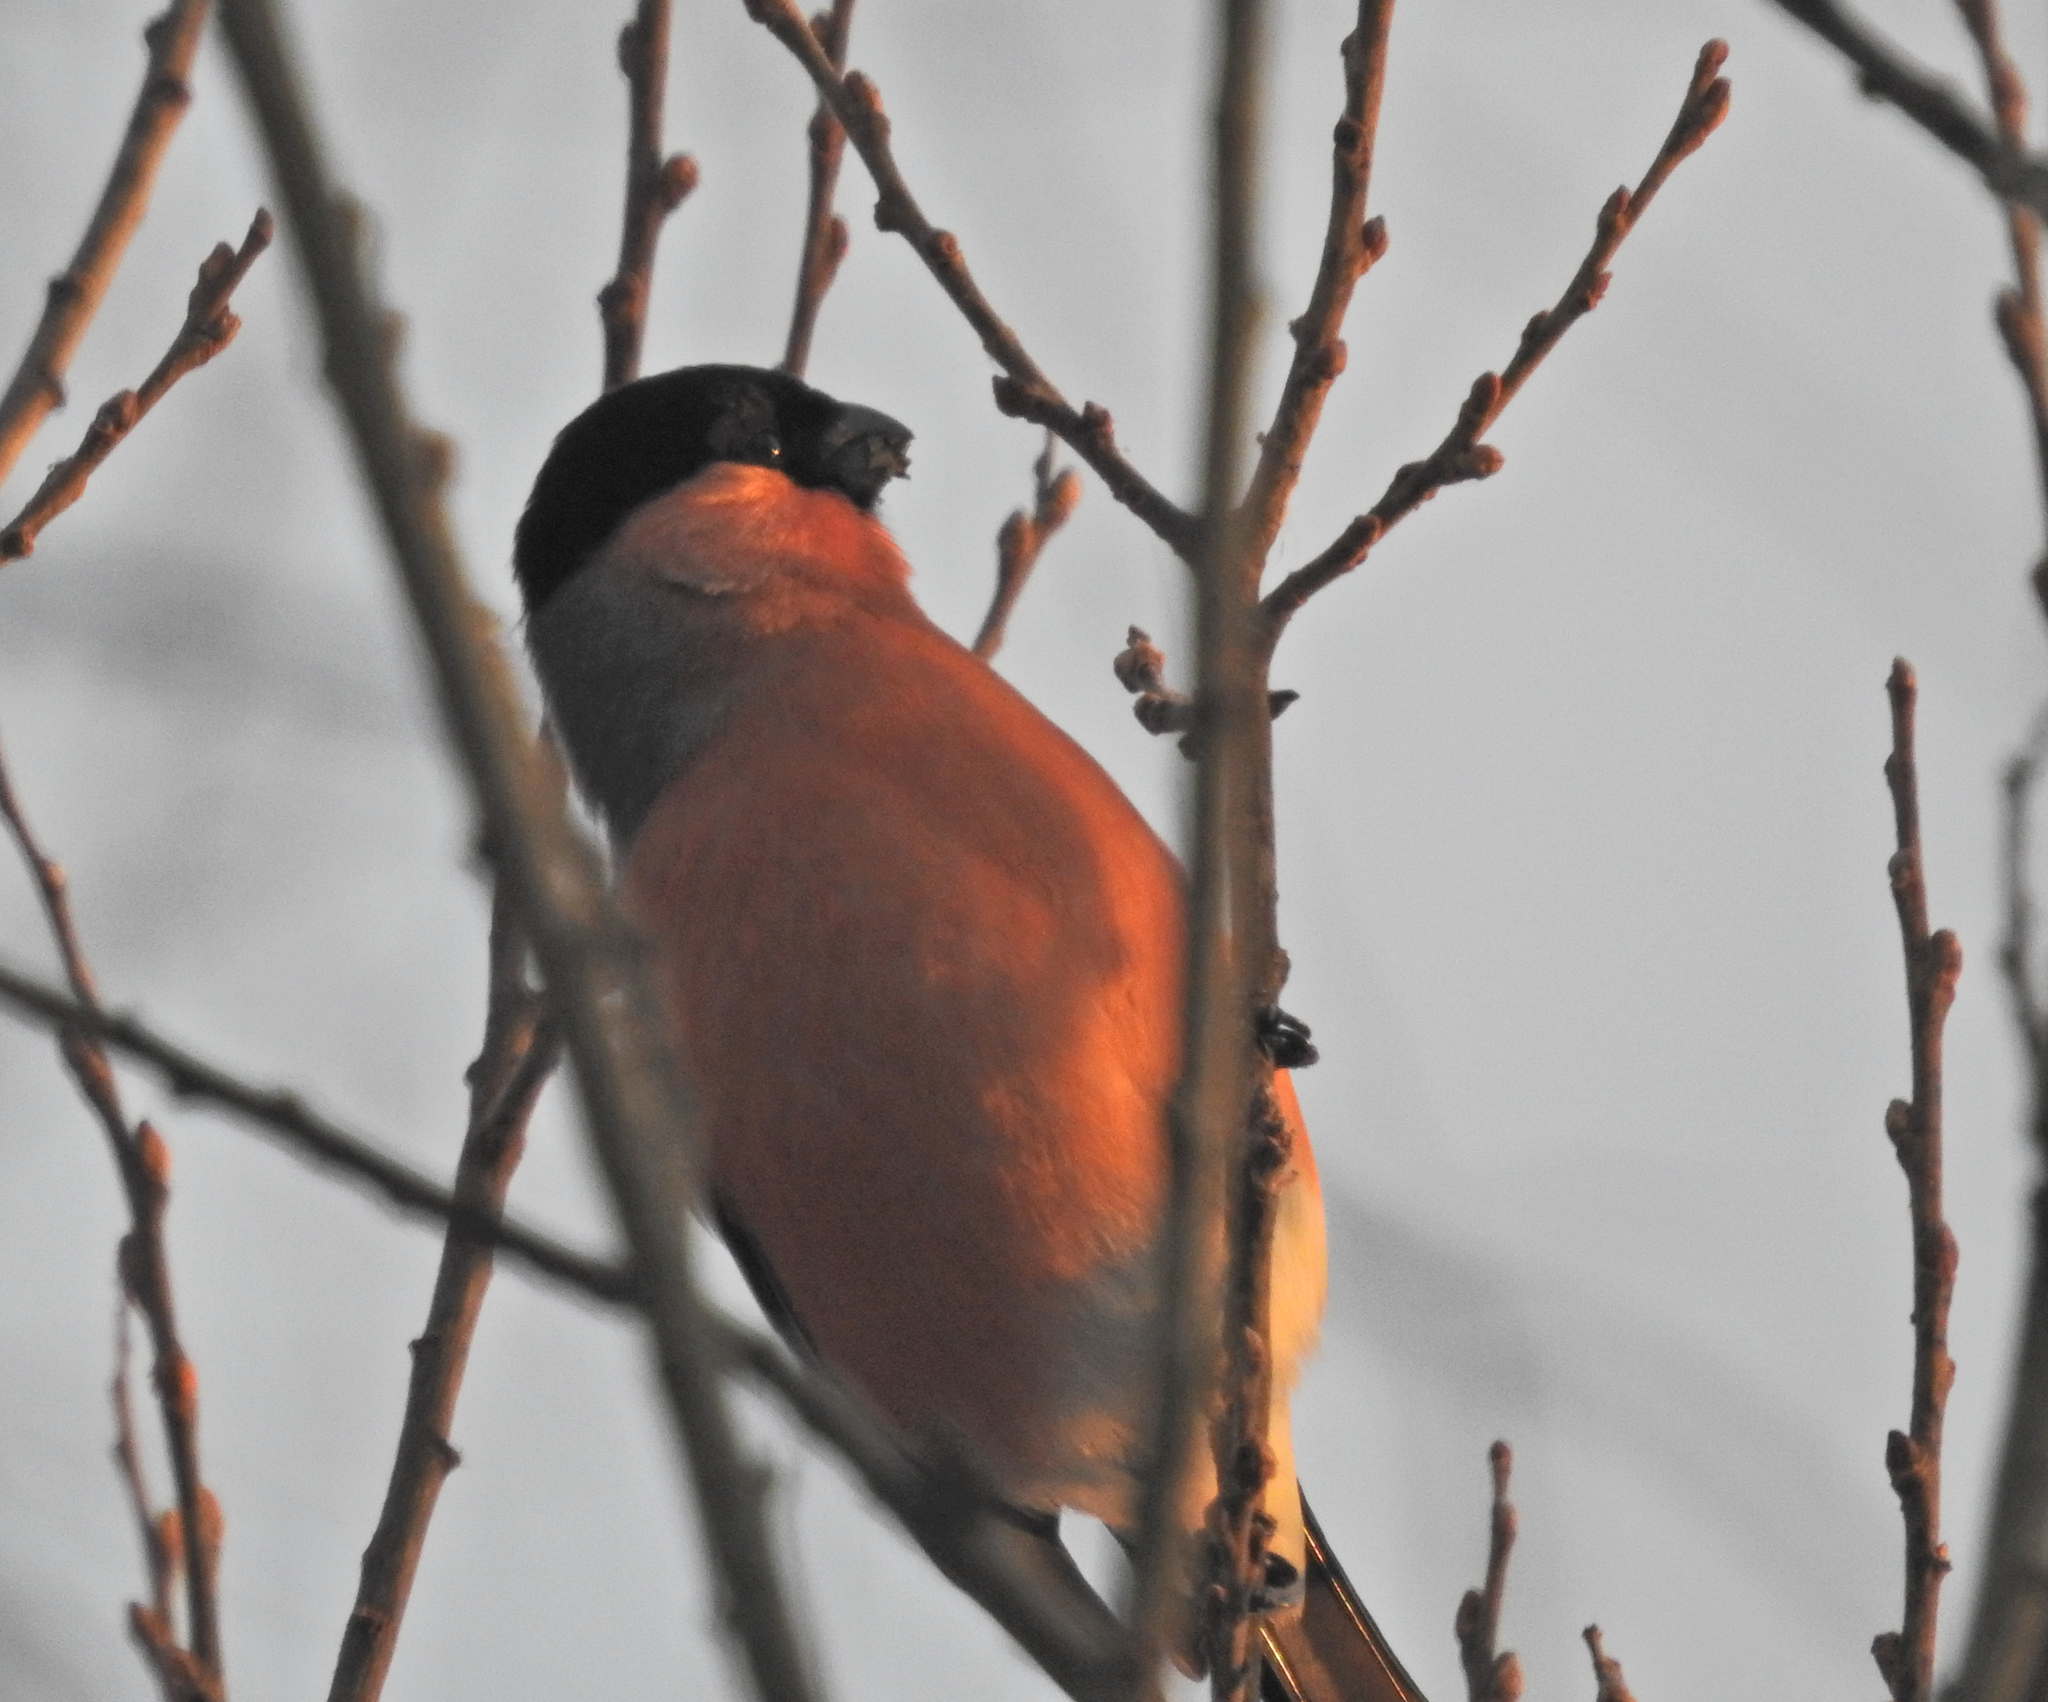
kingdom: Animalia
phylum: Chordata
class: Aves
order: Passeriformes
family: Fringillidae
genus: Pyrrhula
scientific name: Pyrrhula pyrrhula
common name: Eurasian bullfinch
